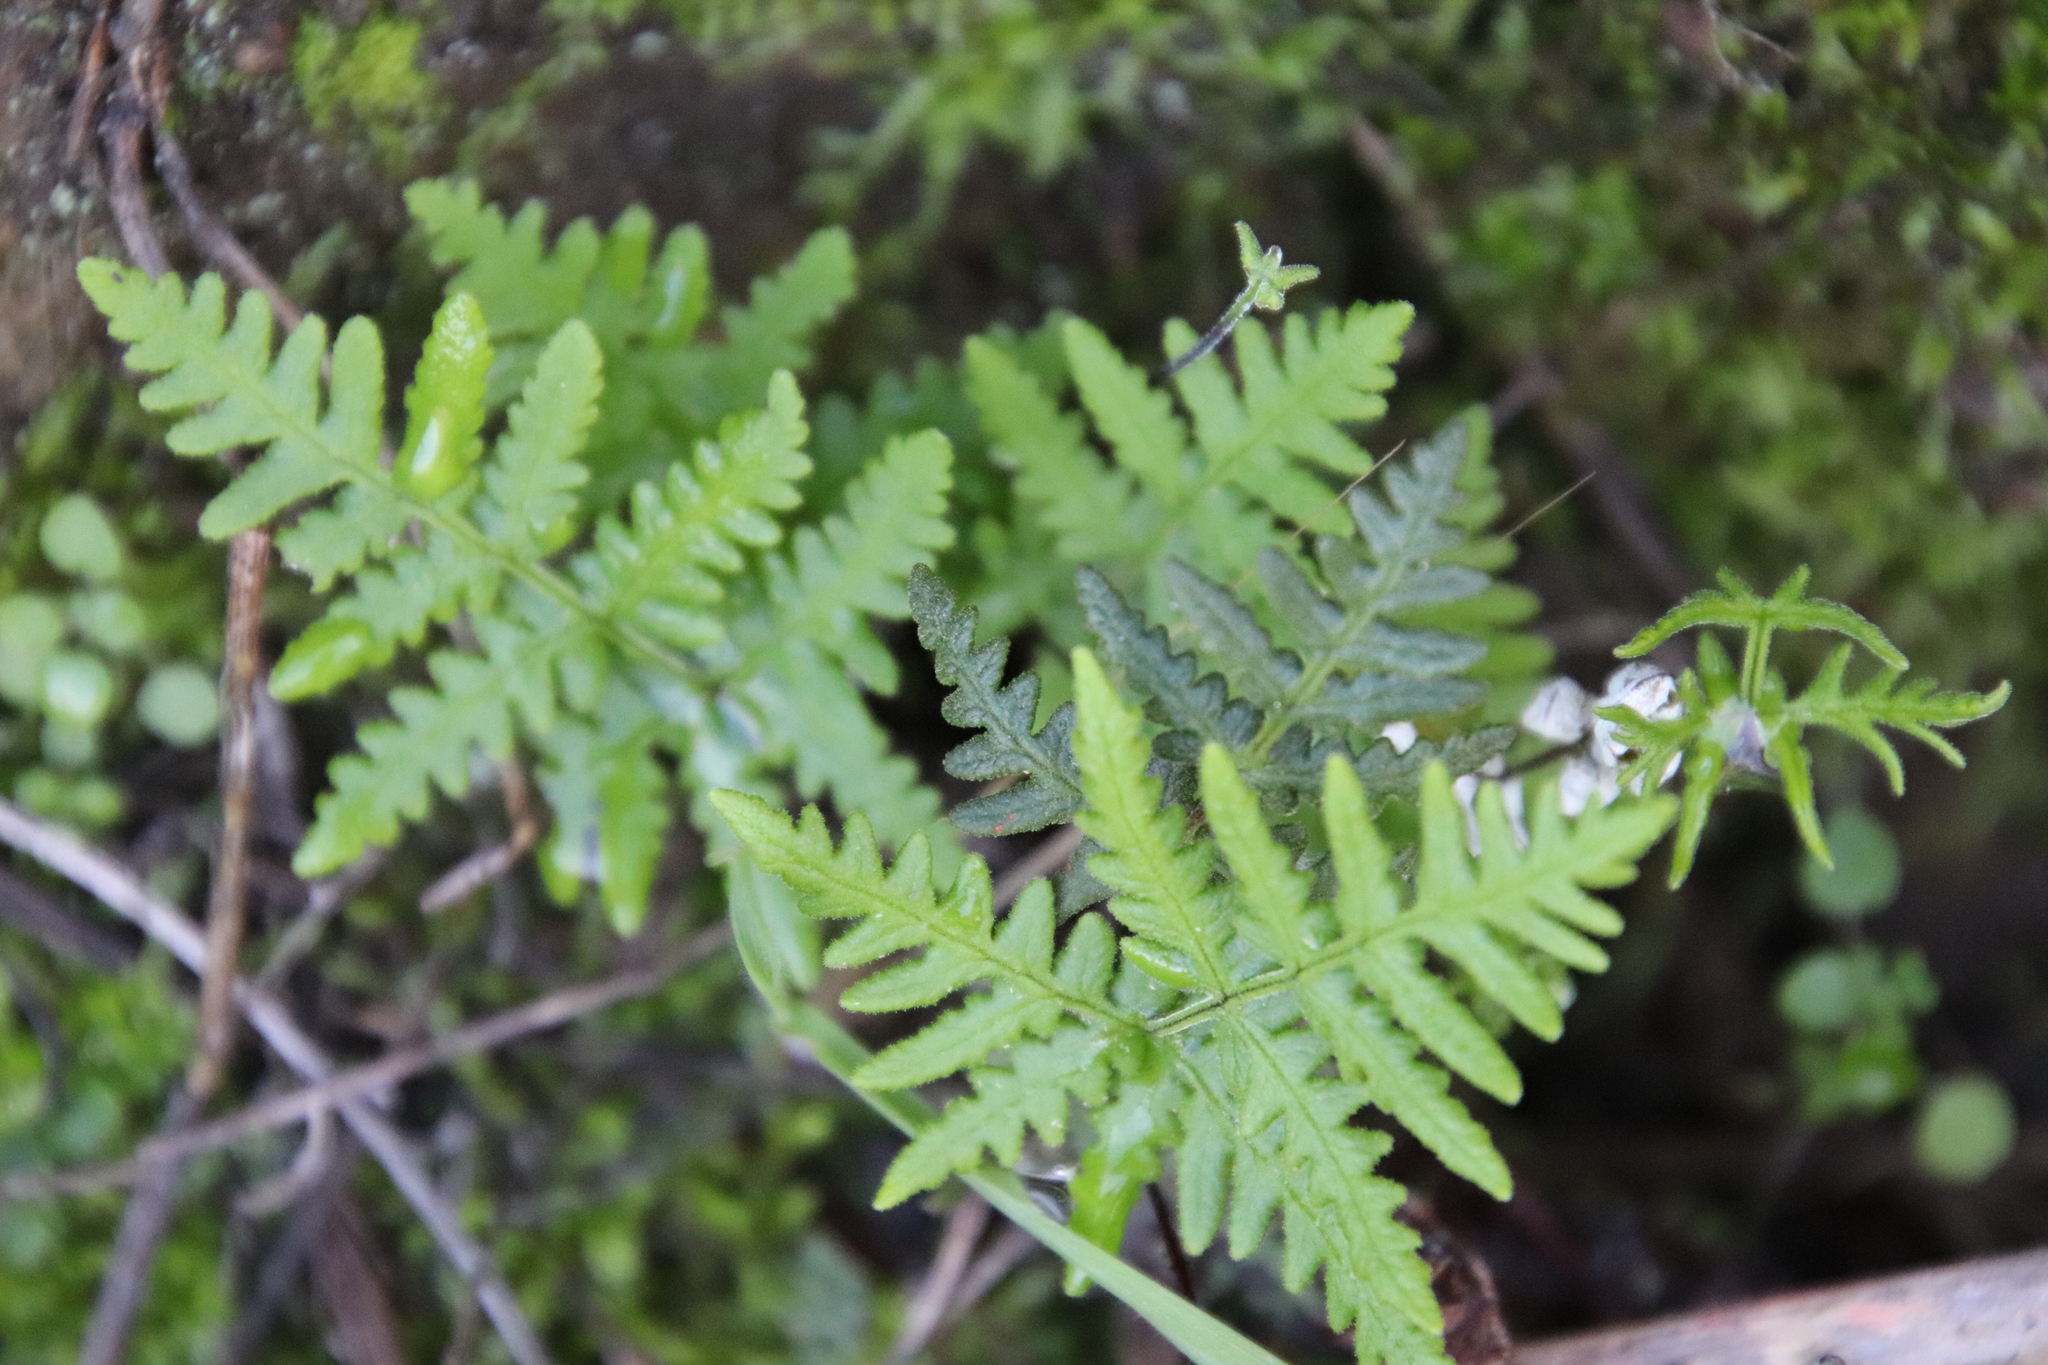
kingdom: Plantae
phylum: Tracheophyta
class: Polypodiopsida
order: Polypodiales
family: Pteridaceae
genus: Pentagramma
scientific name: Pentagramma glanduloviscida
